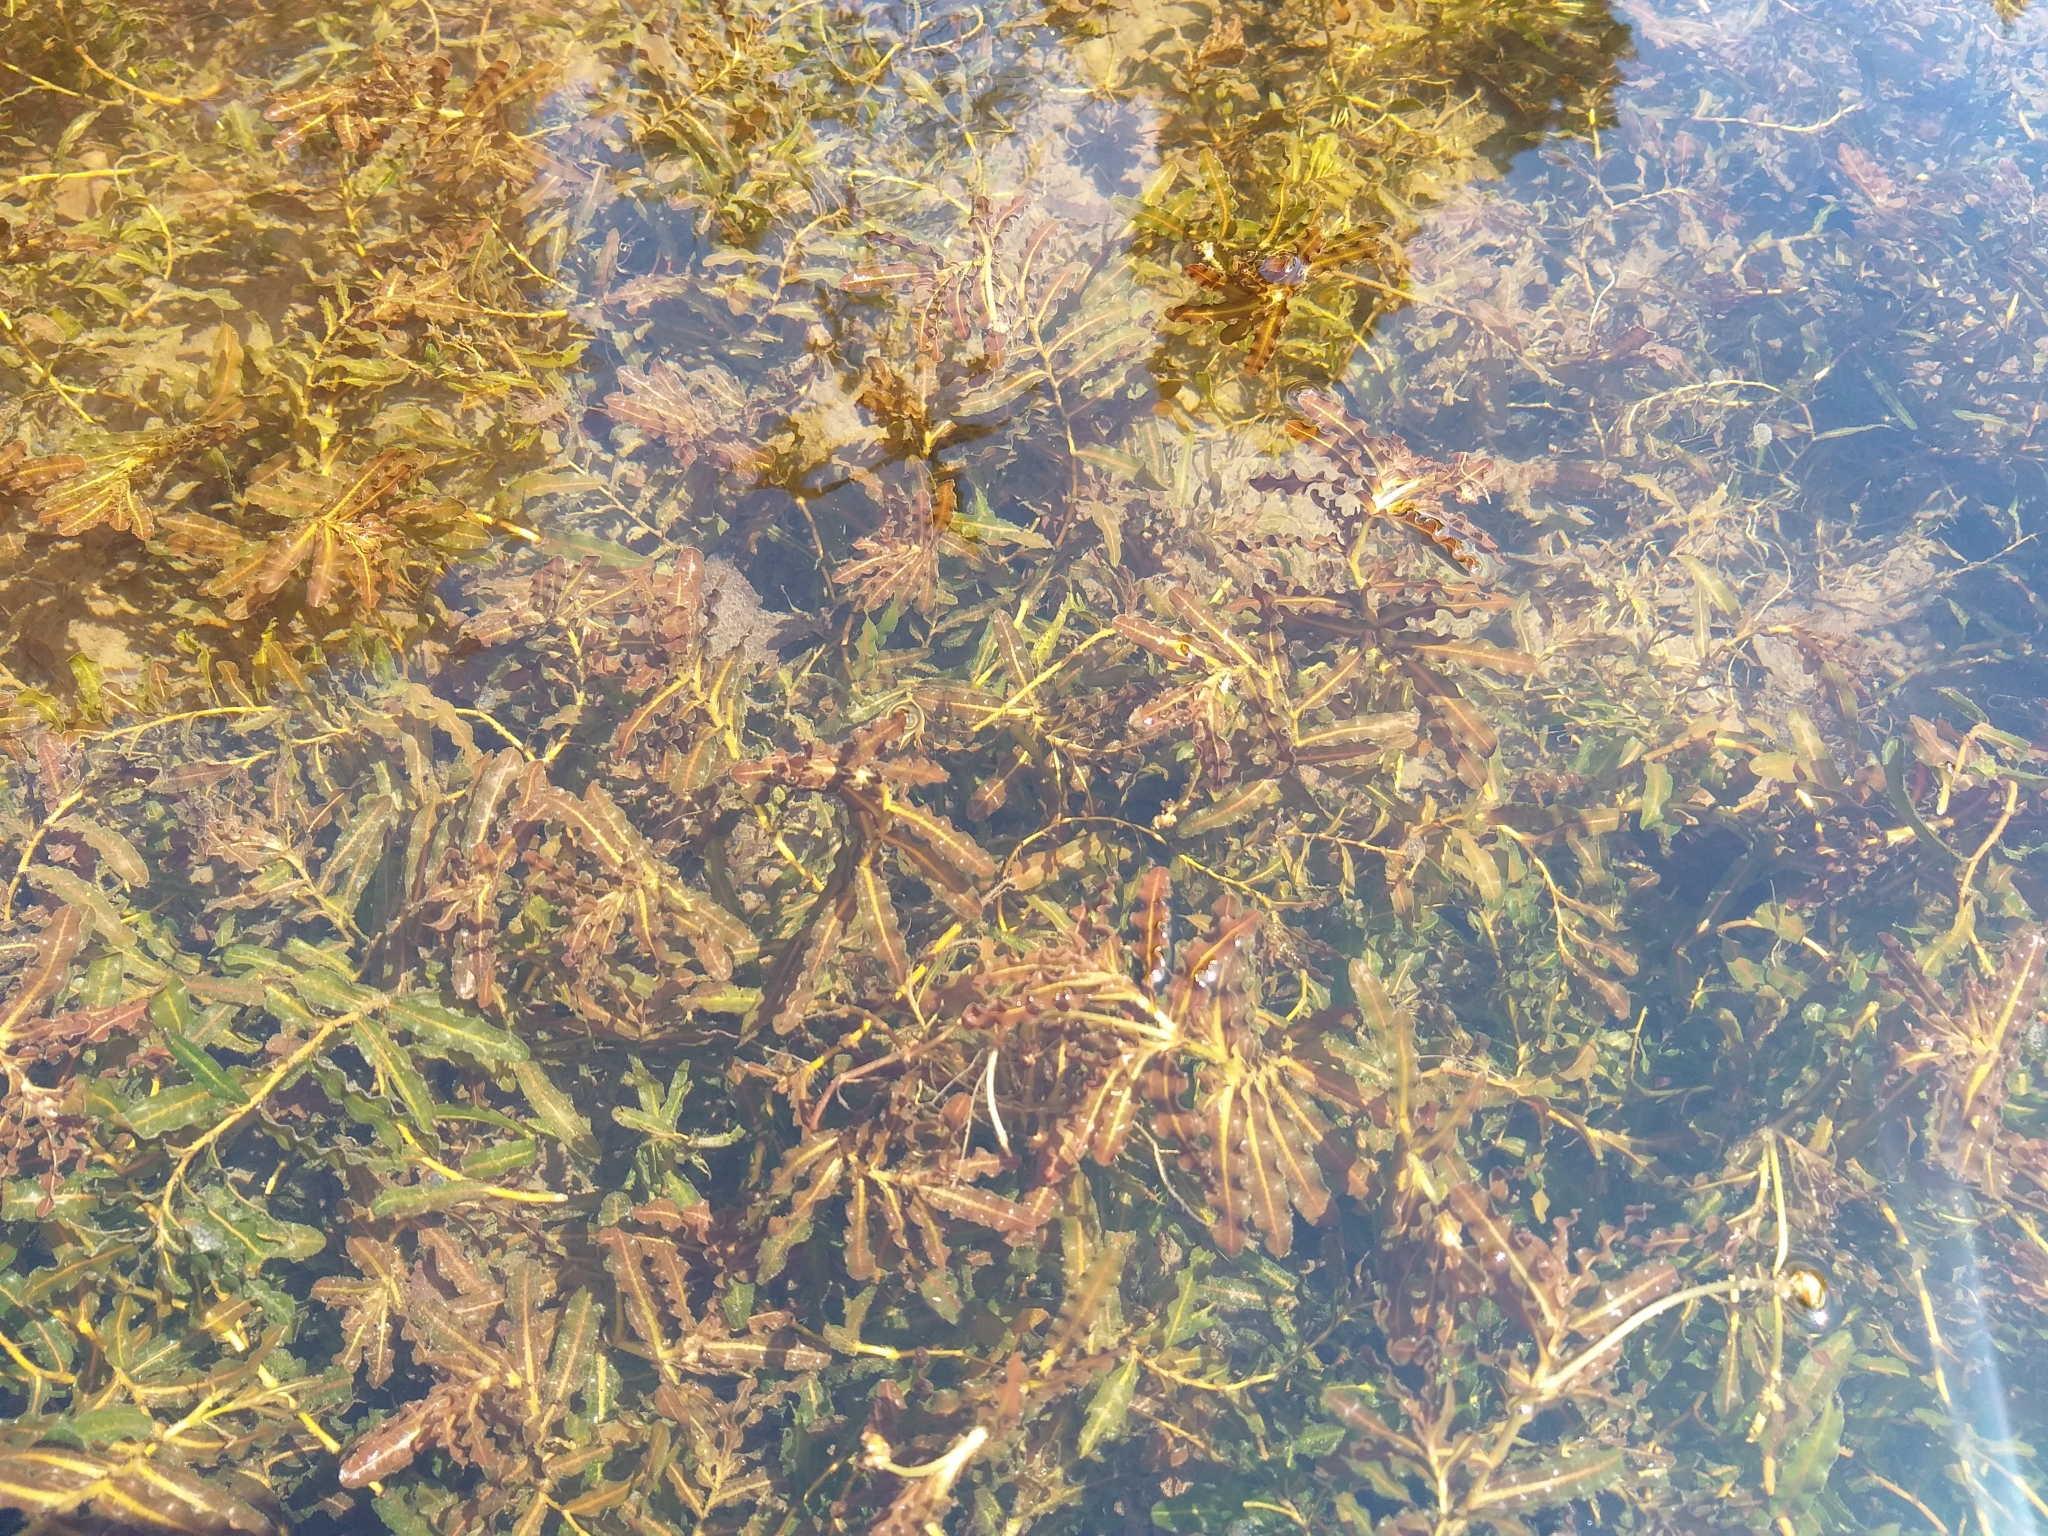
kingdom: Plantae
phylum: Tracheophyta
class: Liliopsida
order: Alismatales
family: Potamogetonaceae
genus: Potamogeton
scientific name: Potamogeton crispus
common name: Curled pondweed
